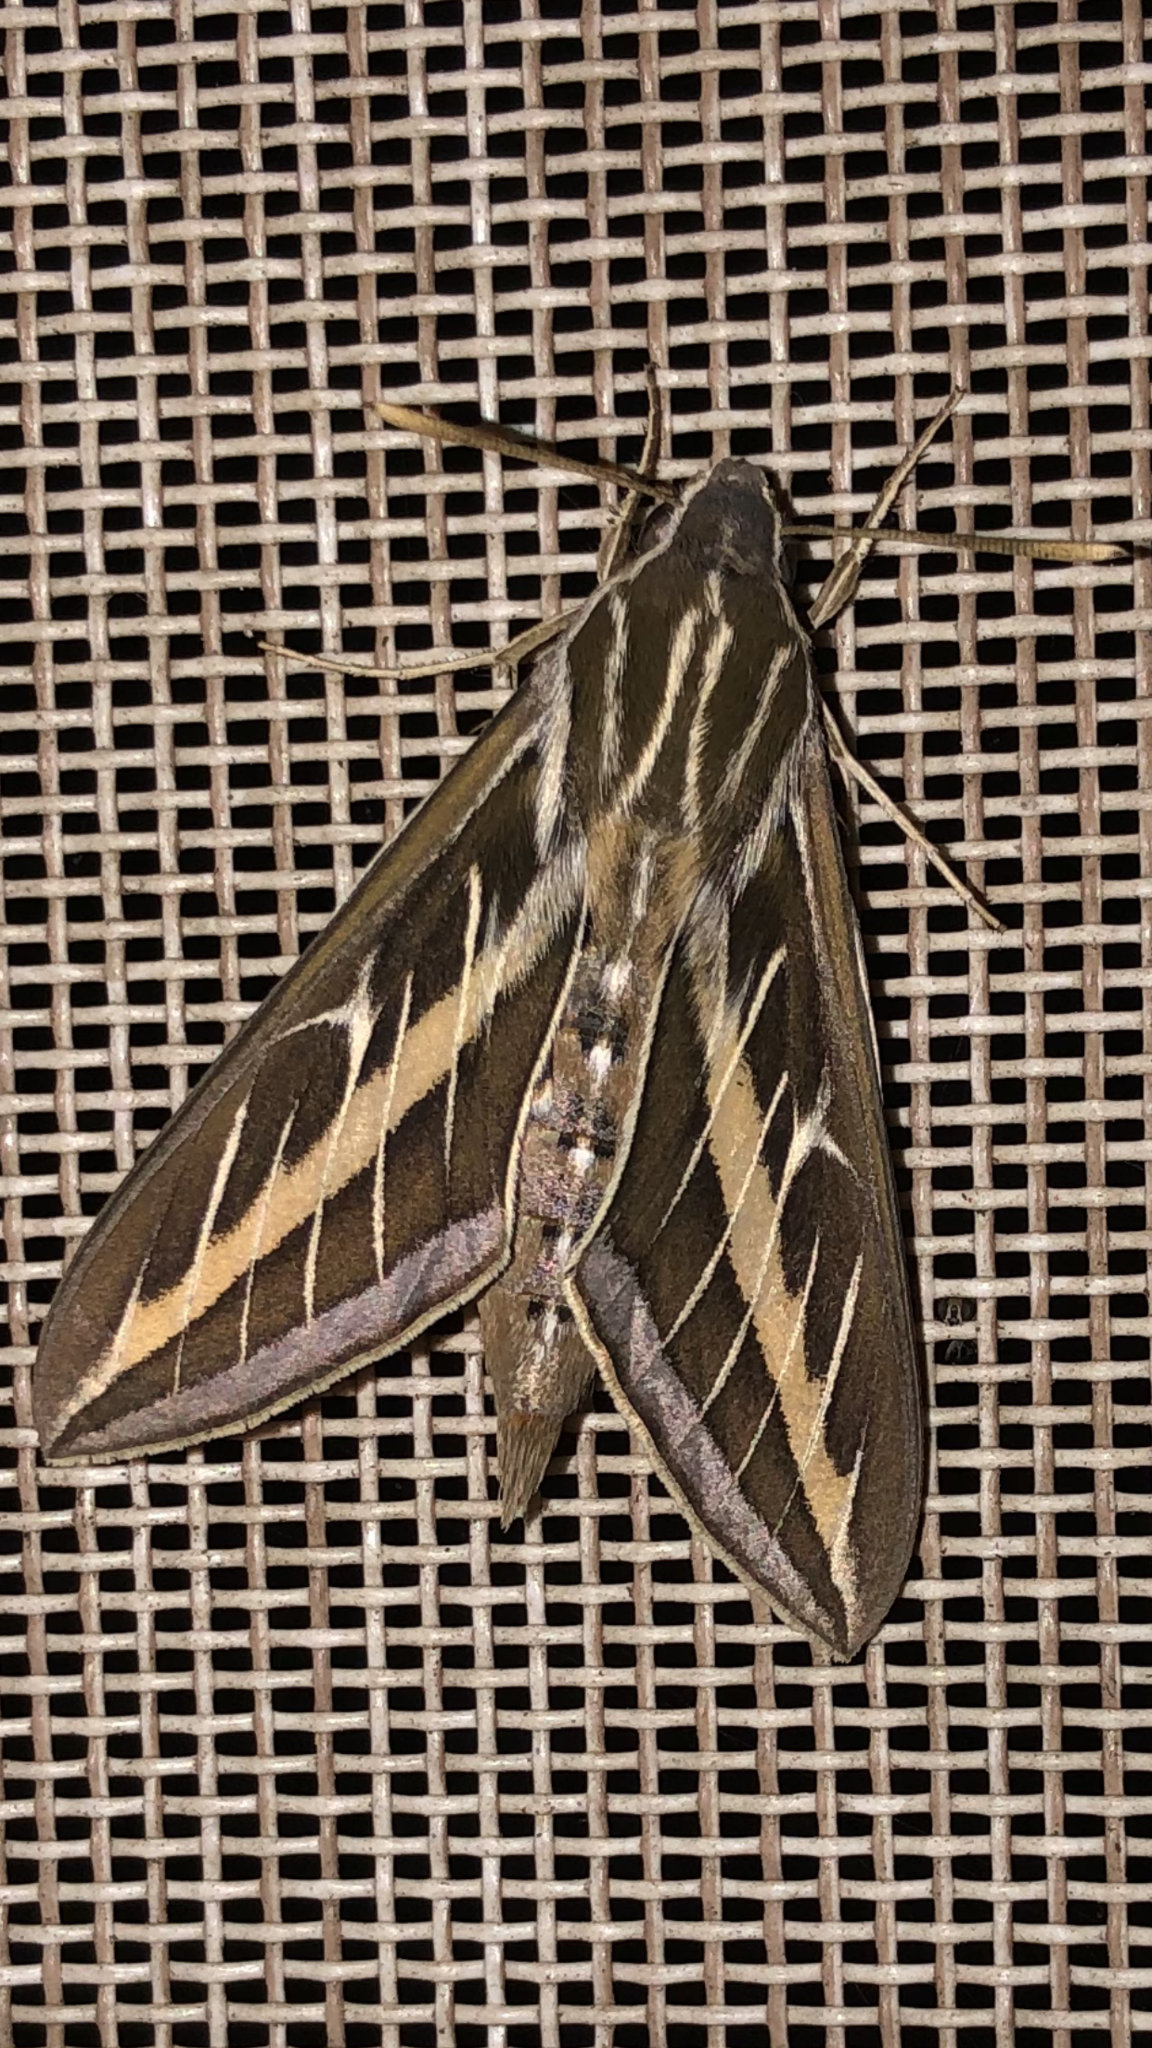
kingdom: Animalia
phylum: Arthropoda
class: Insecta
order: Lepidoptera
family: Sphingidae
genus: Hyles
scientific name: Hyles lineata
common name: White-lined sphinx
